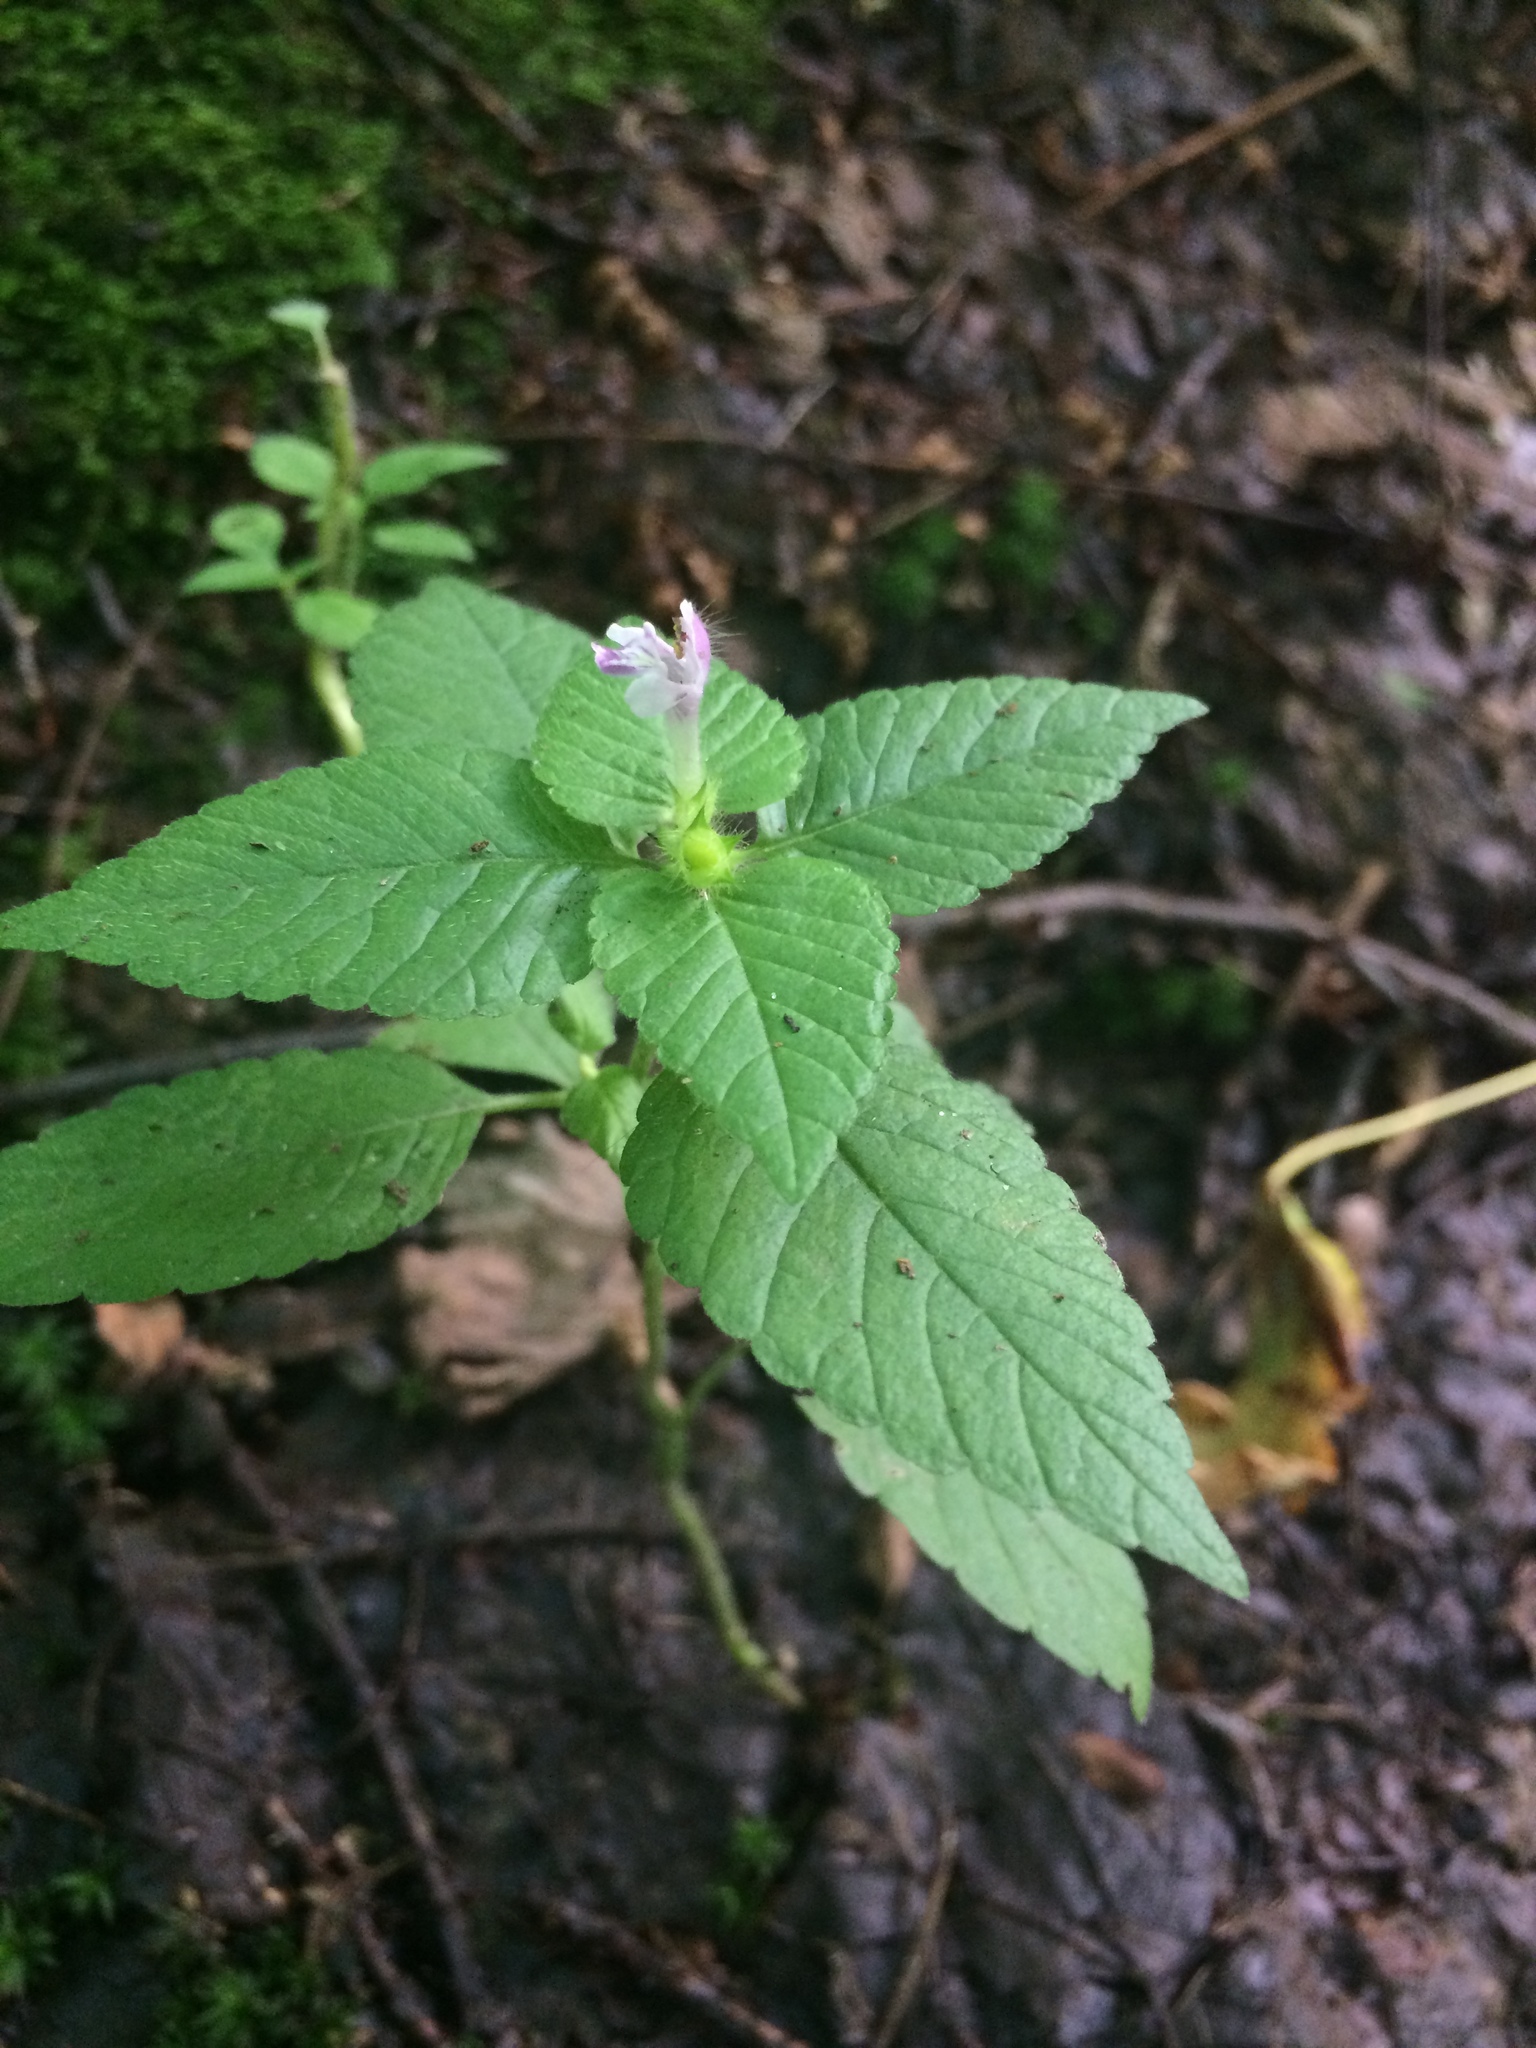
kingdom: Plantae
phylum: Tracheophyta
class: Magnoliopsida
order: Lamiales
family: Lamiaceae
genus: Galeopsis
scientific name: Galeopsis bifida
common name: Bifid hemp-nettle
